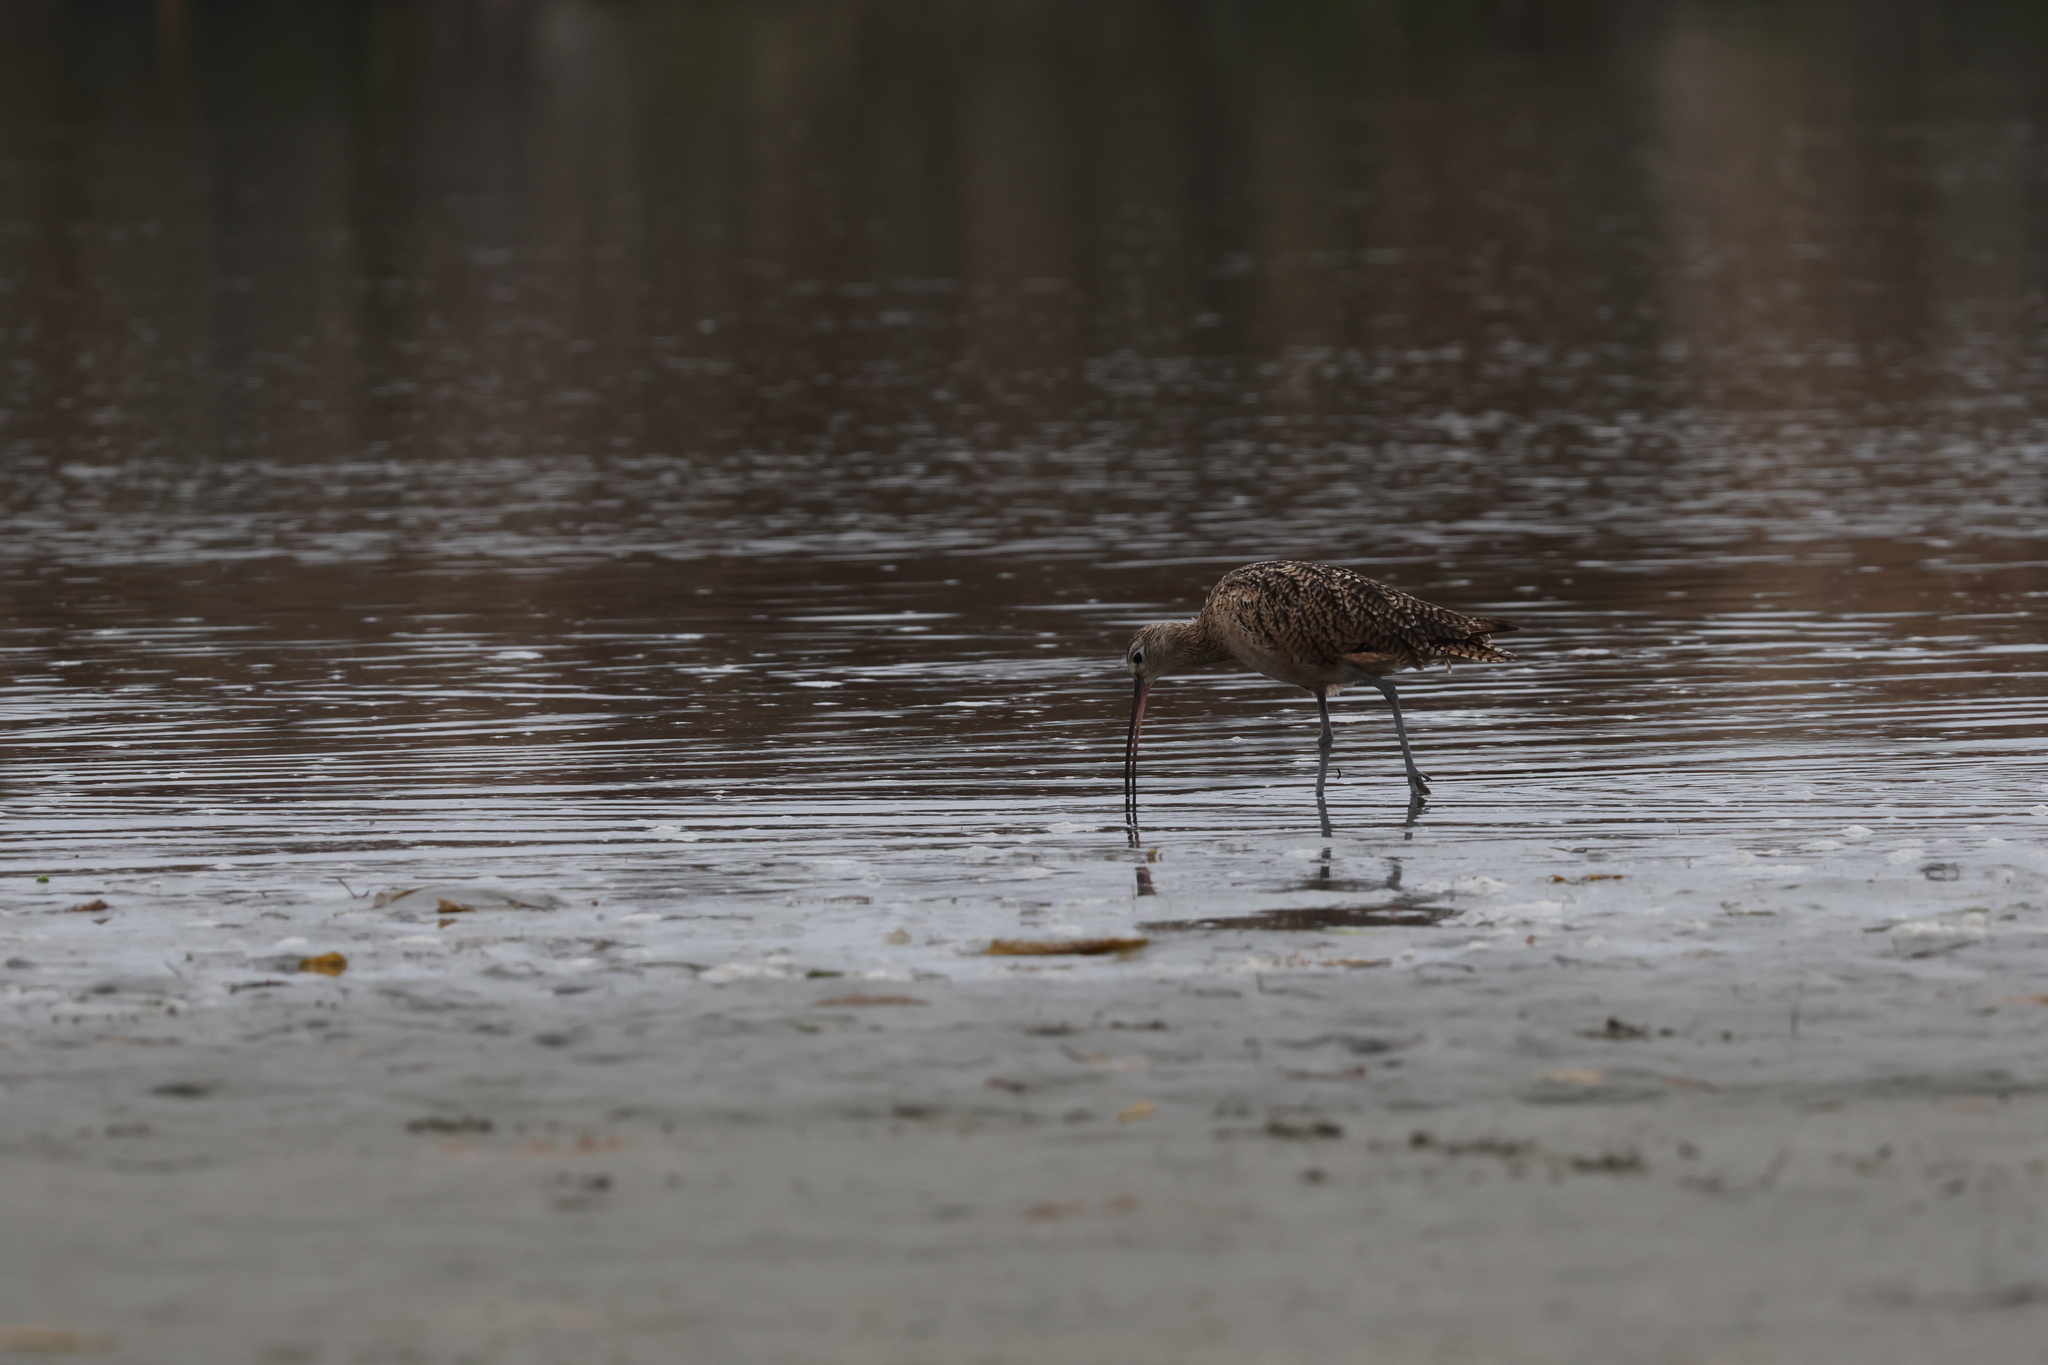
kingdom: Animalia
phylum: Chordata
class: Aves
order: Charadriiformes
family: Scolopacidae
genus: Numenius
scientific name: Numenius americanus
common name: Long-billed curlew
